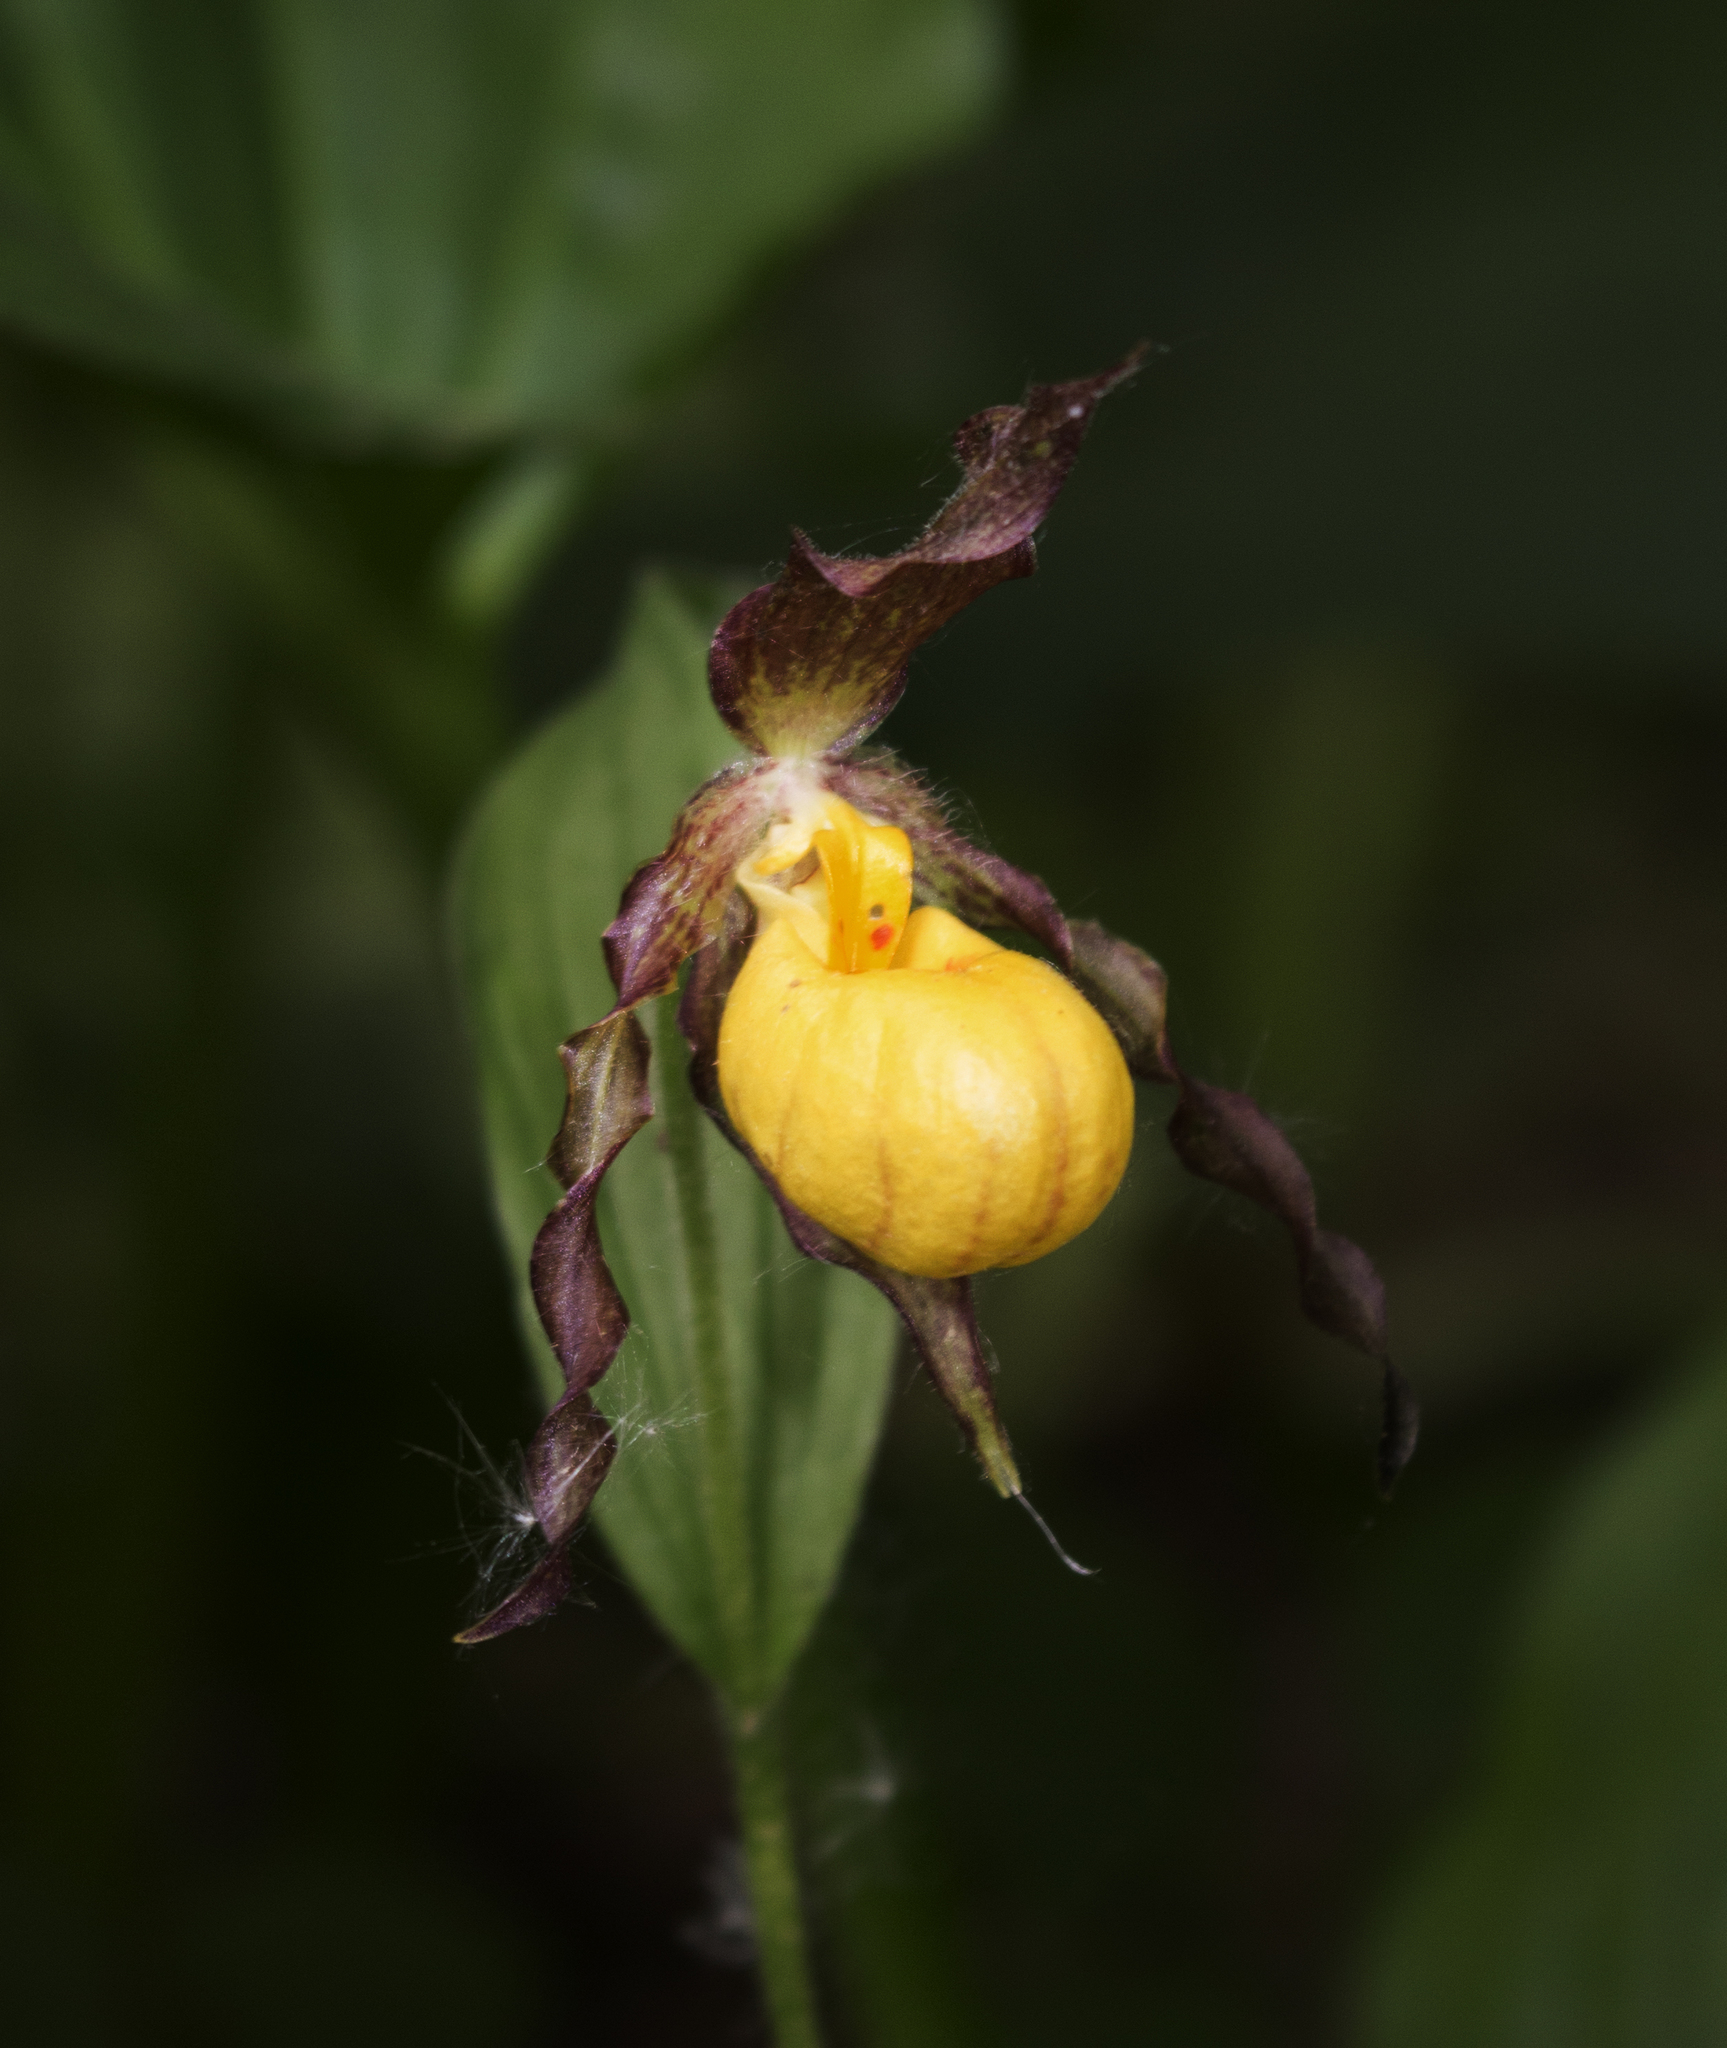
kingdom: Plantae
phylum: Tracheophyta
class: Liliopsida
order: Asparagales
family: Orchidaceae
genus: Cypripedium
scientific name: Cypripedium parviflorum
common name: American yellow lady's-slipper
